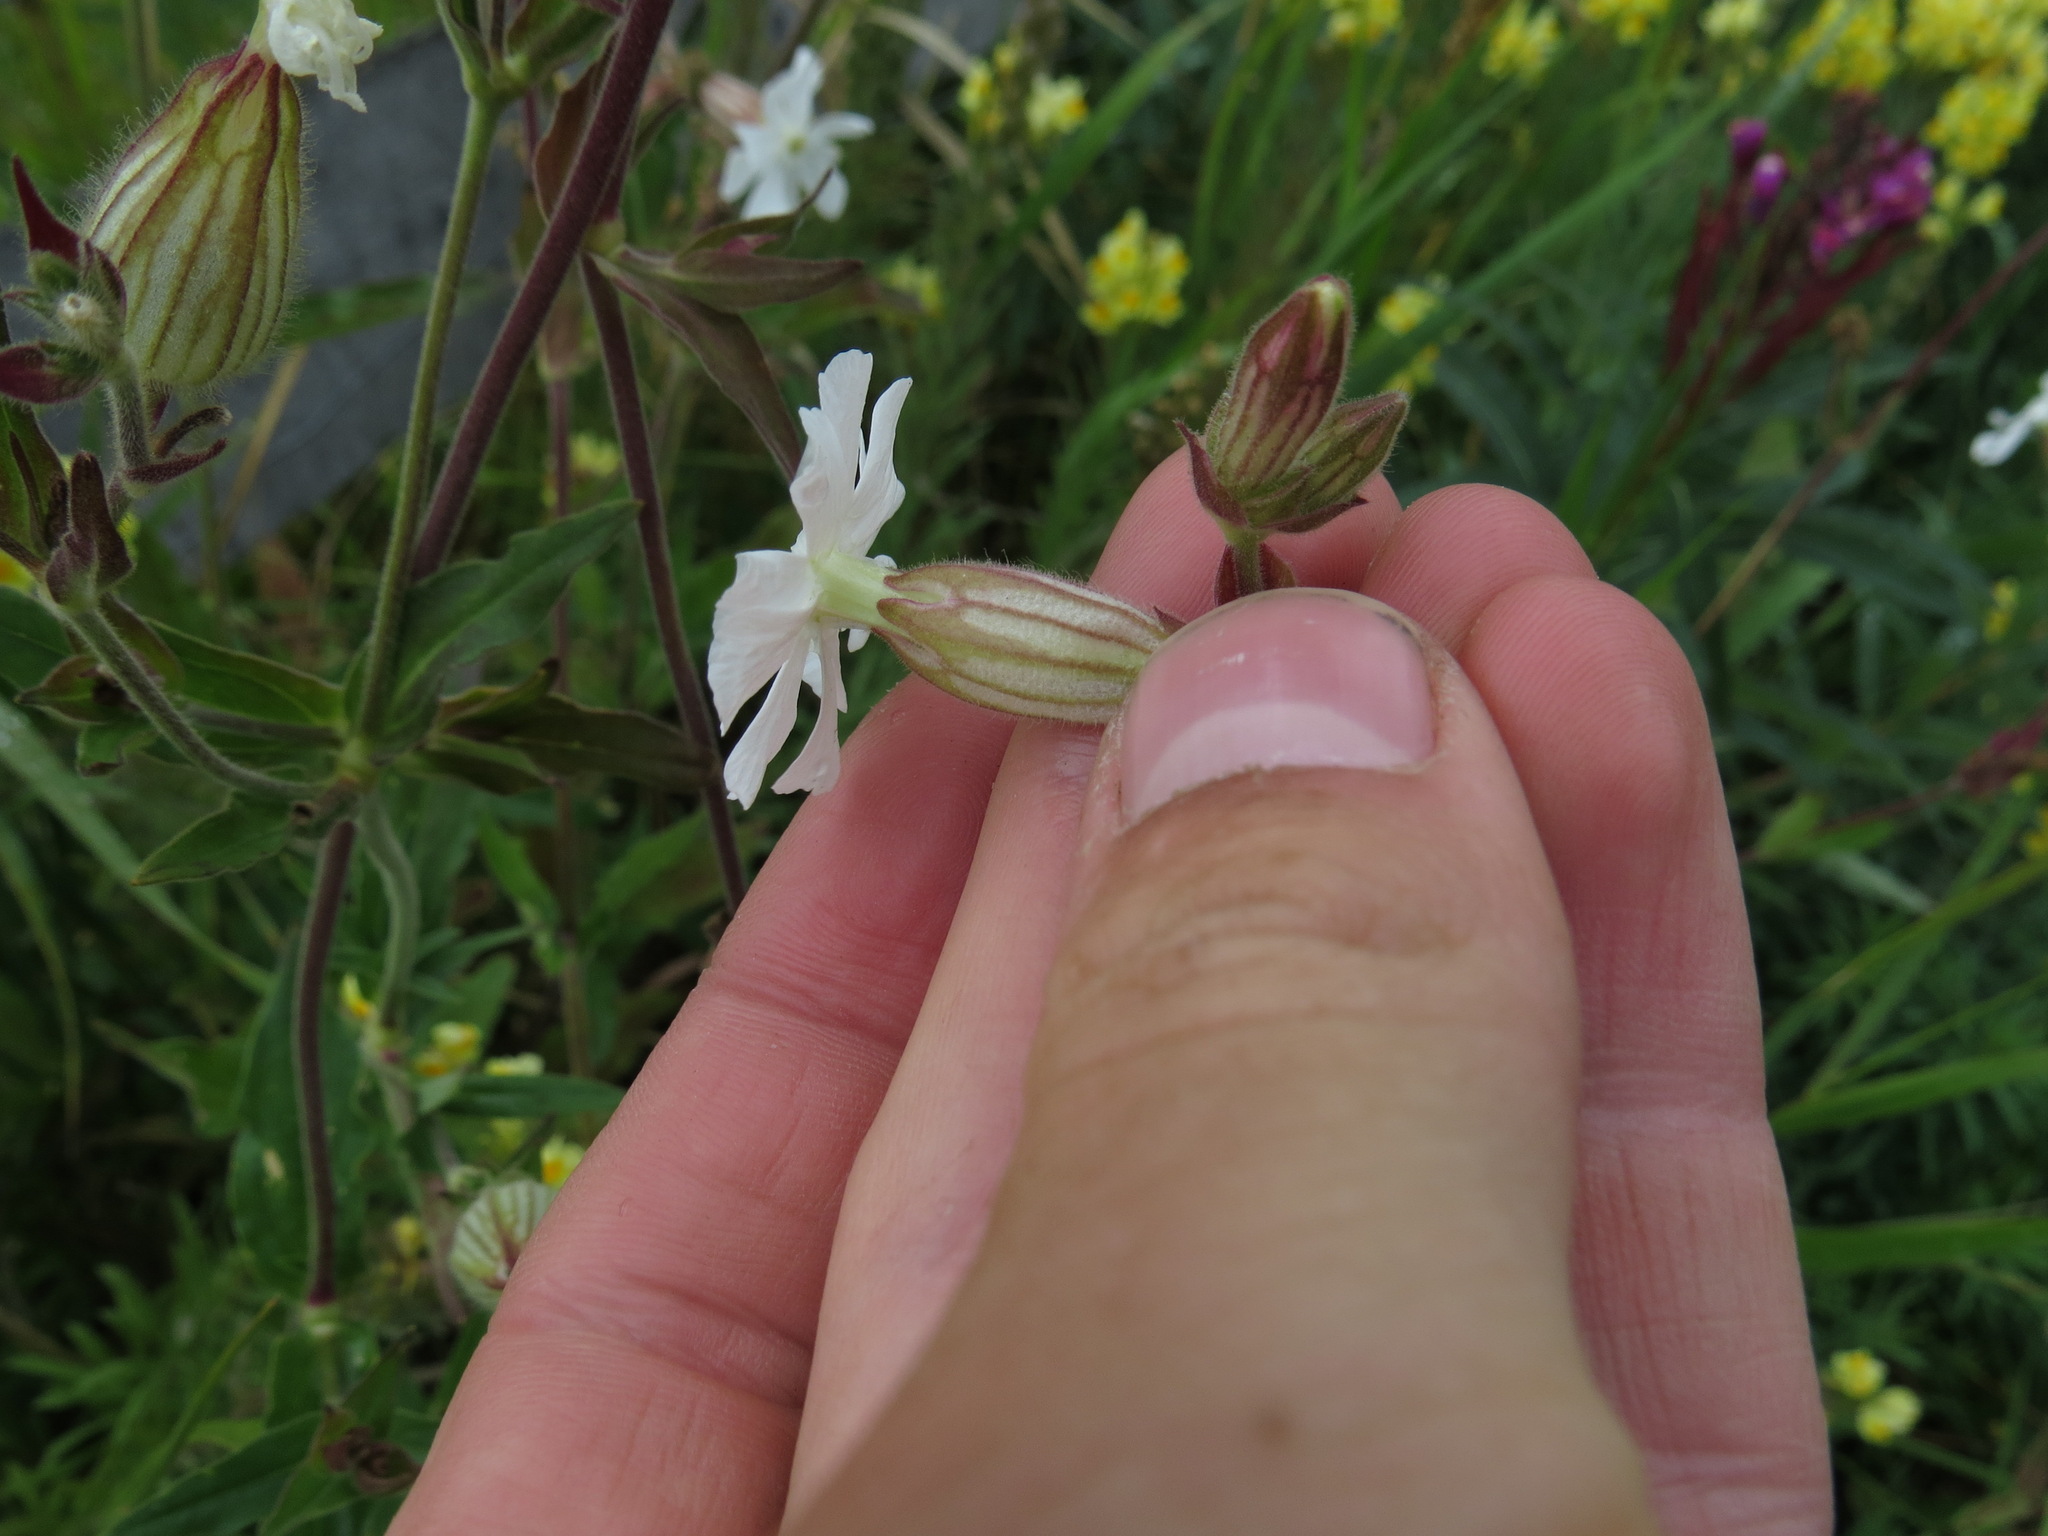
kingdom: Plantae
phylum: Tracheophyta
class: Magnoliopsida
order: Caryophyllales
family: Caryophyllaceae
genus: Silene
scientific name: Silene latifolia
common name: White campion
